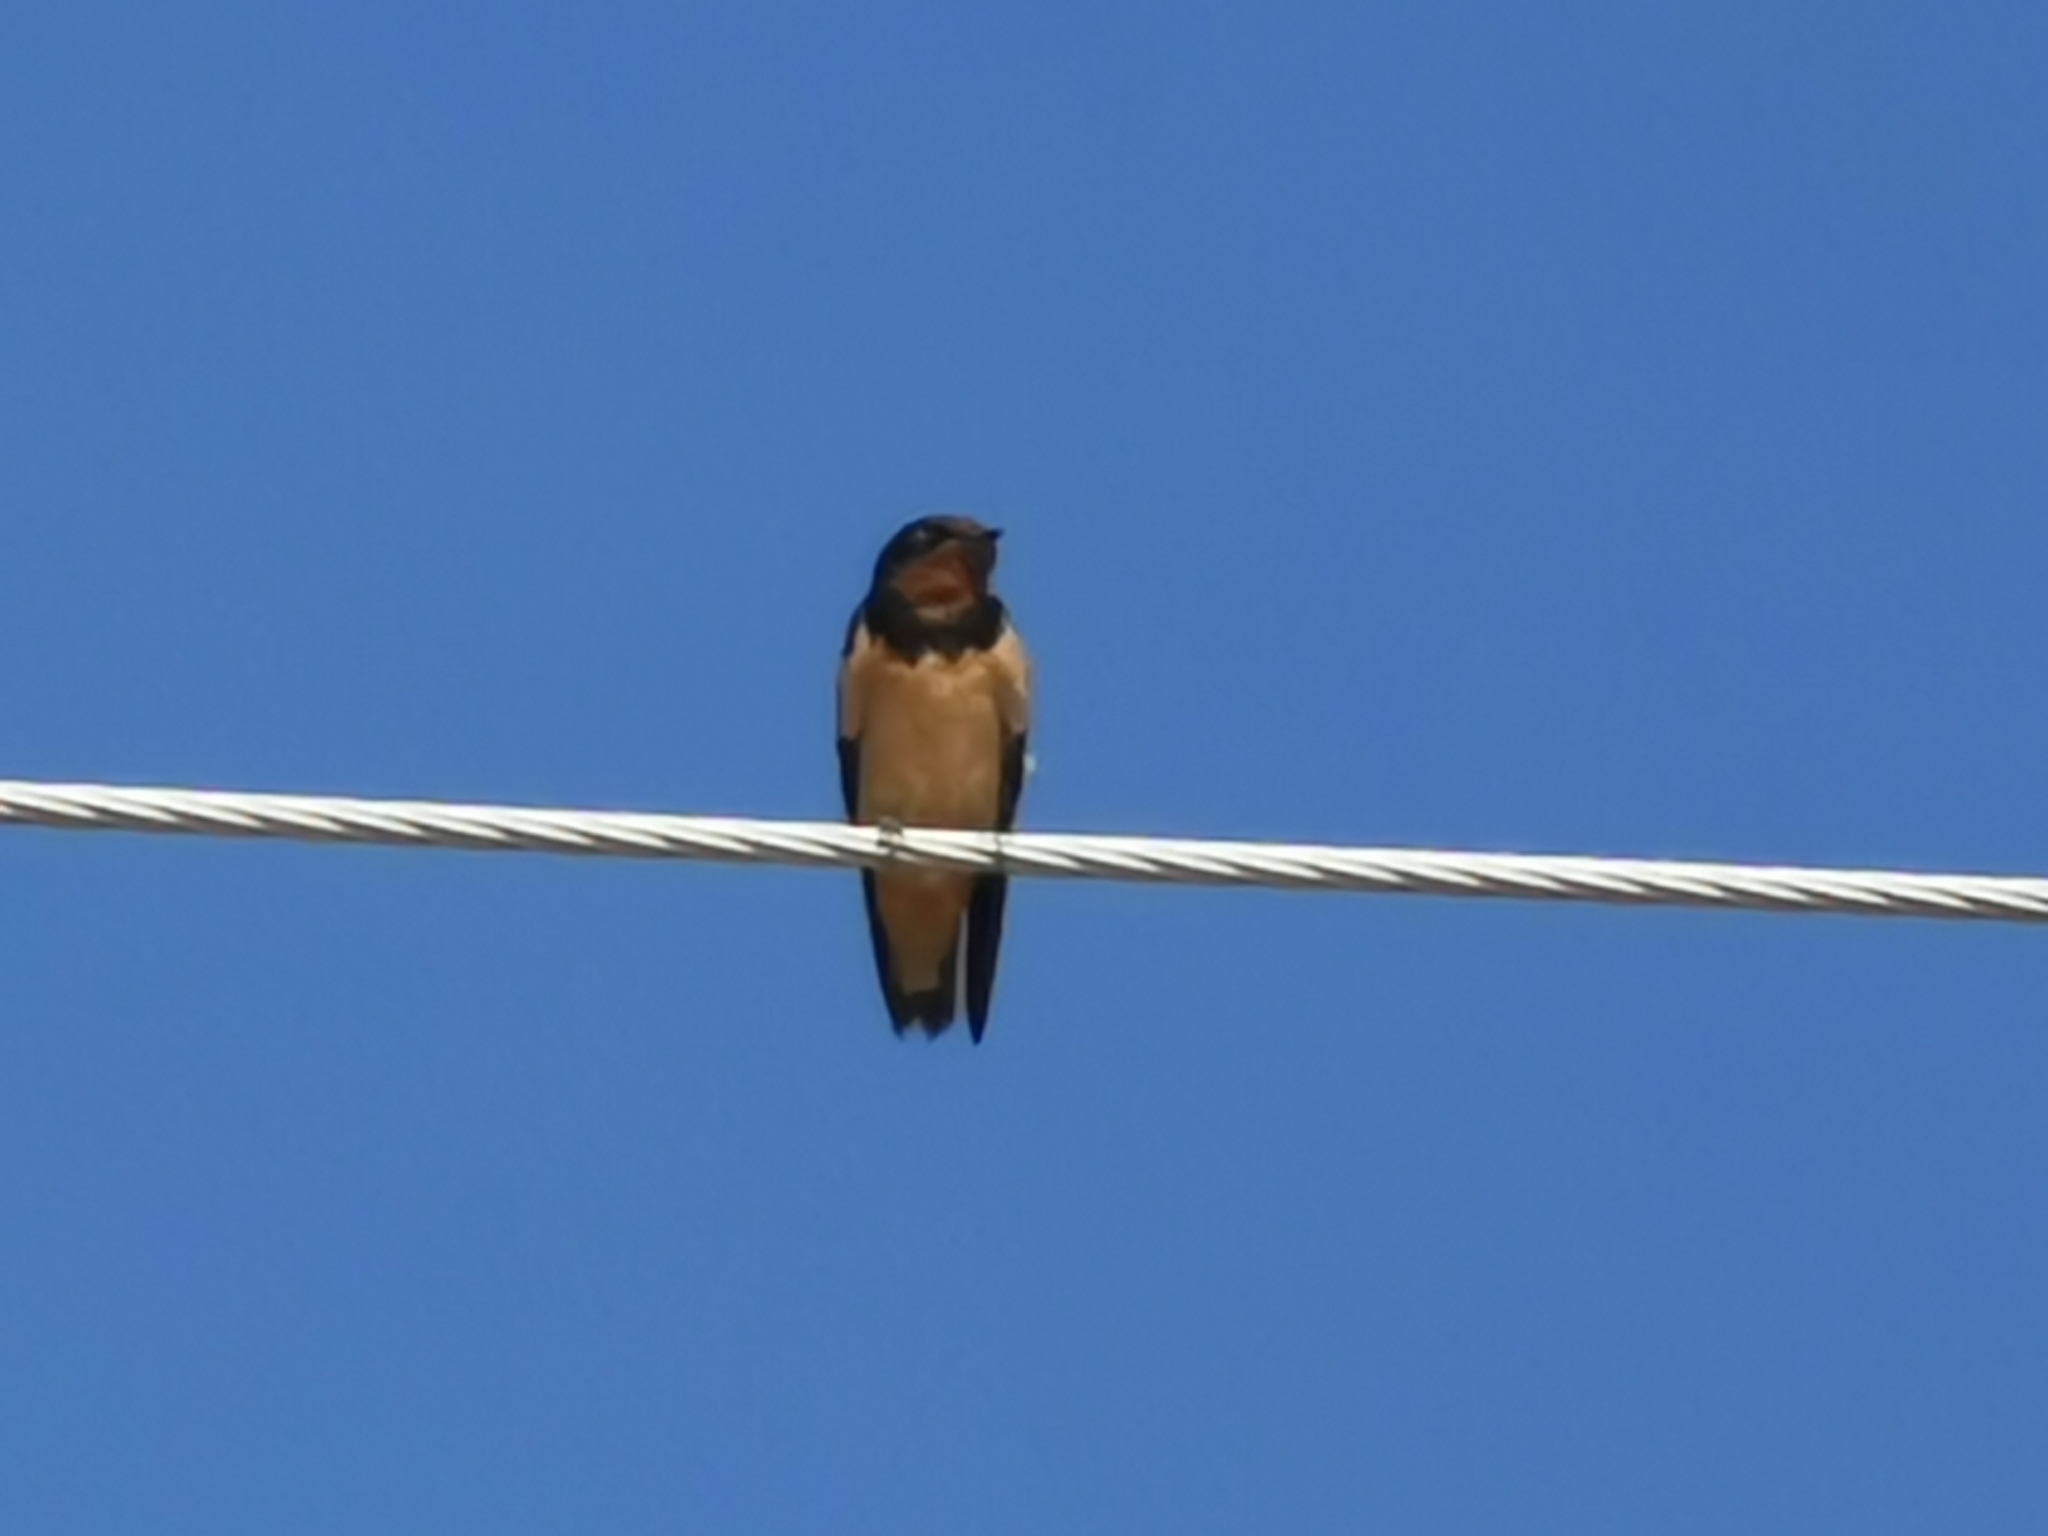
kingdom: Animalia
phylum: Chordata
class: Aves
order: Passeriformes
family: Hirundinidae
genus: Hirundo
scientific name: Hirundo rustica
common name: Barn swallow
